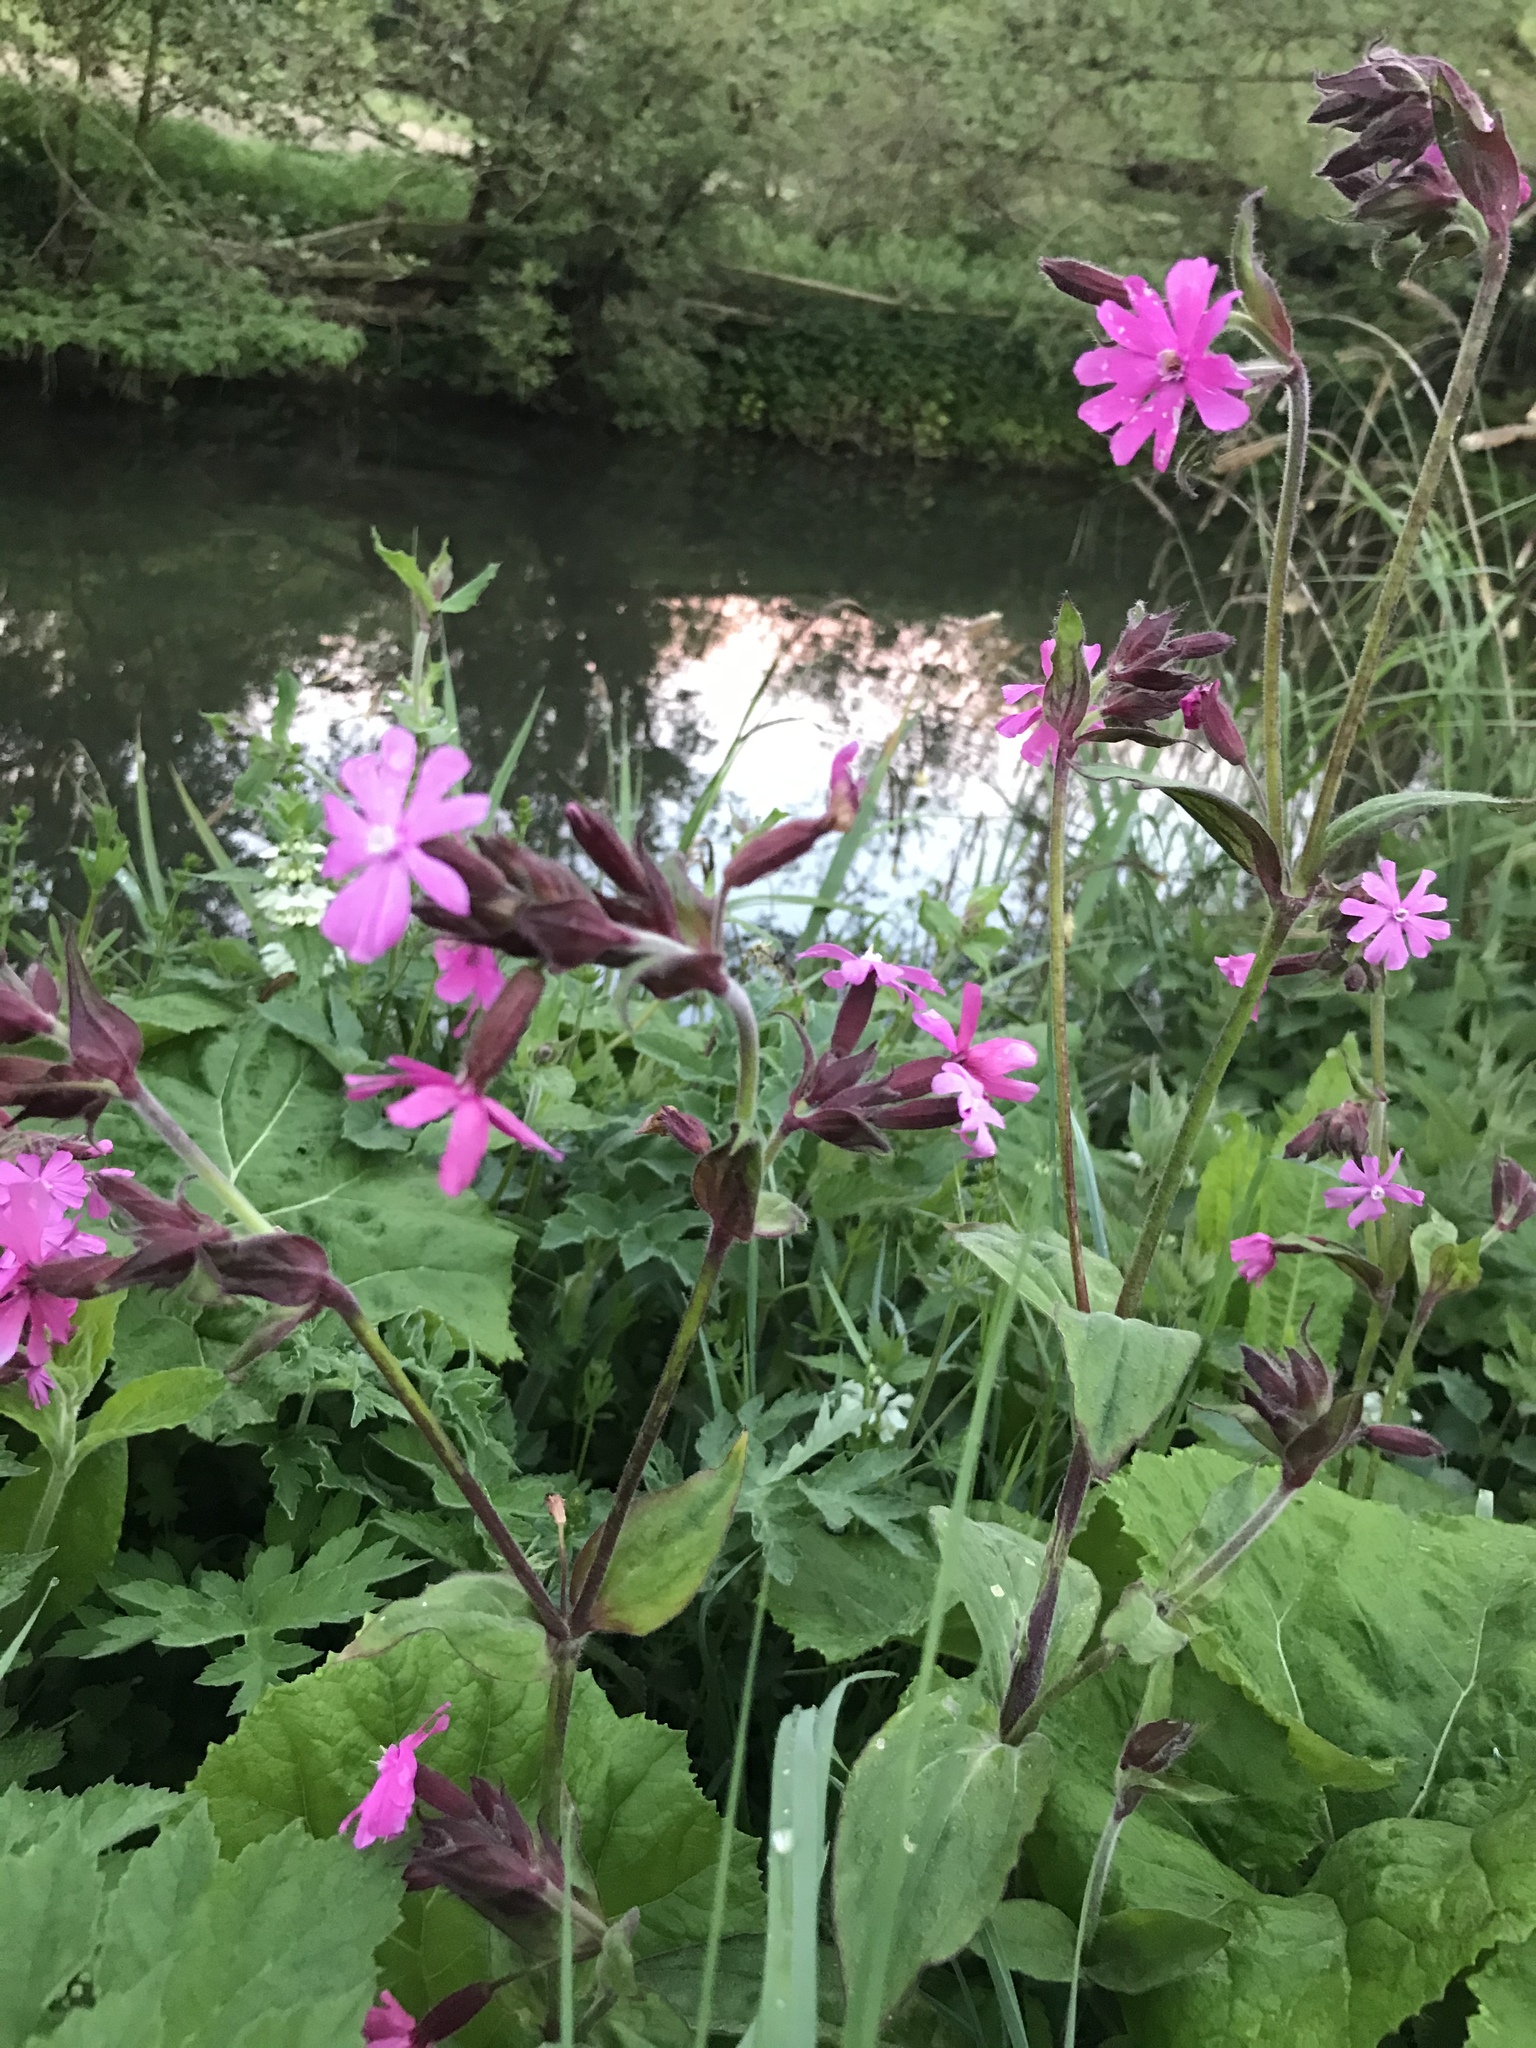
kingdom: Plantae
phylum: Tracheophyta
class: Magnoliopsida
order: Caryophyllales
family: Caryophyllaceae
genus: Silene
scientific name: Silene dioica
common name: Red campion
